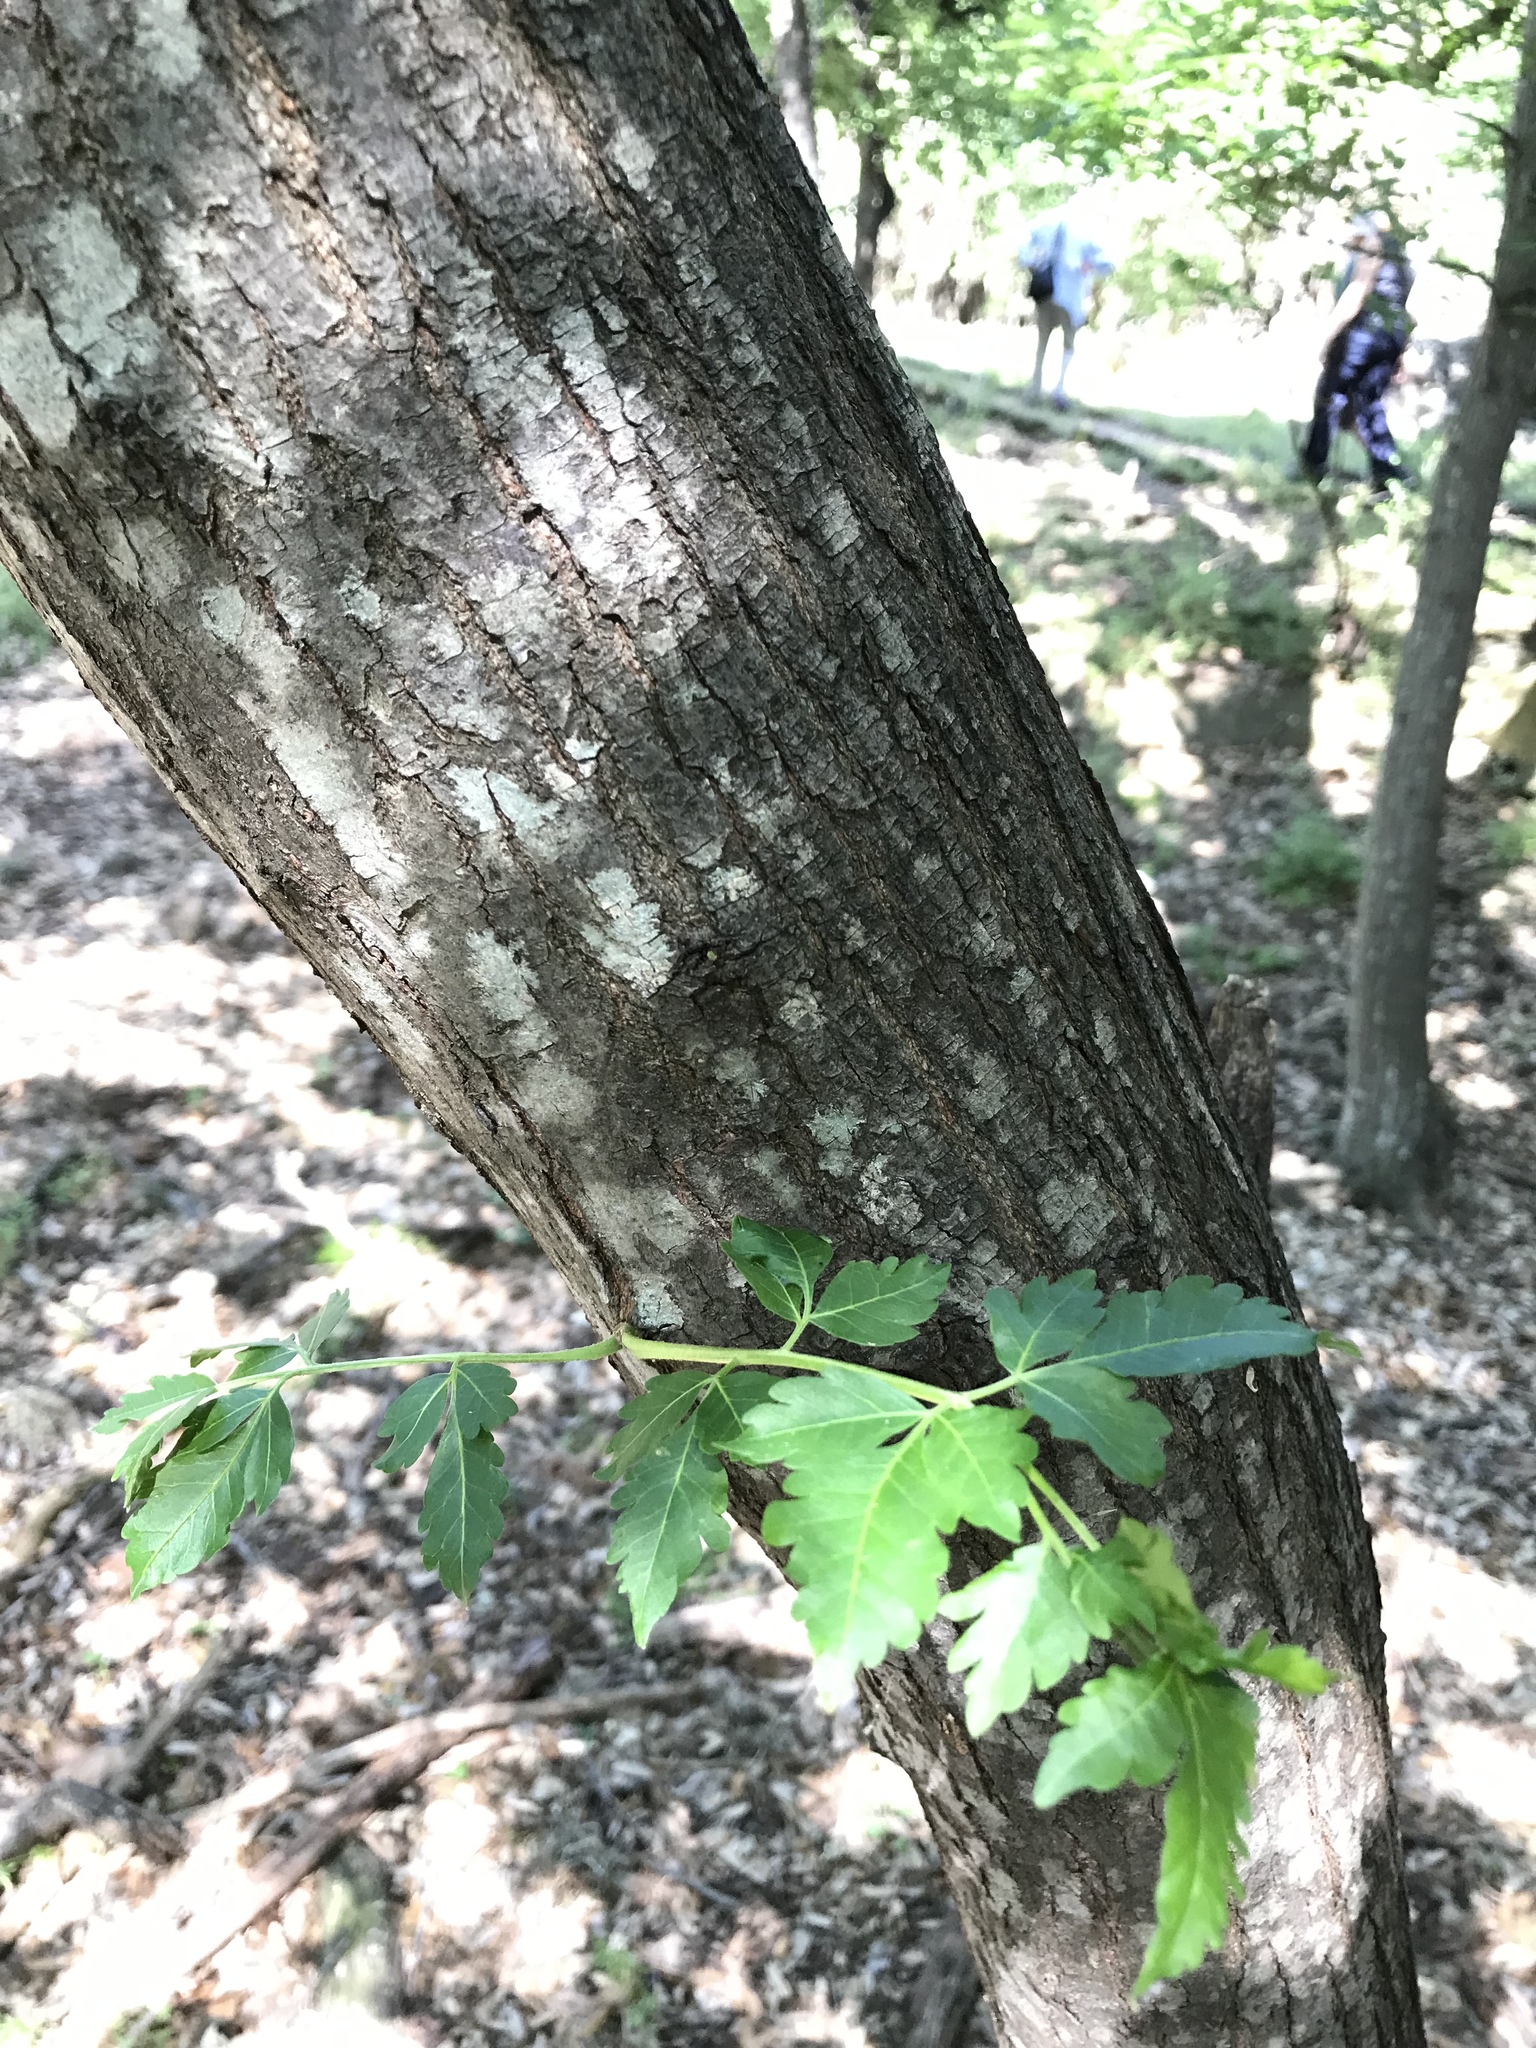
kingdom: Plantae
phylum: Tracheophyta
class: Magnoliopsida
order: Sapindales
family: Meliaceae
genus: Melia
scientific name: Melia azedarach
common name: Chinaberrytree
